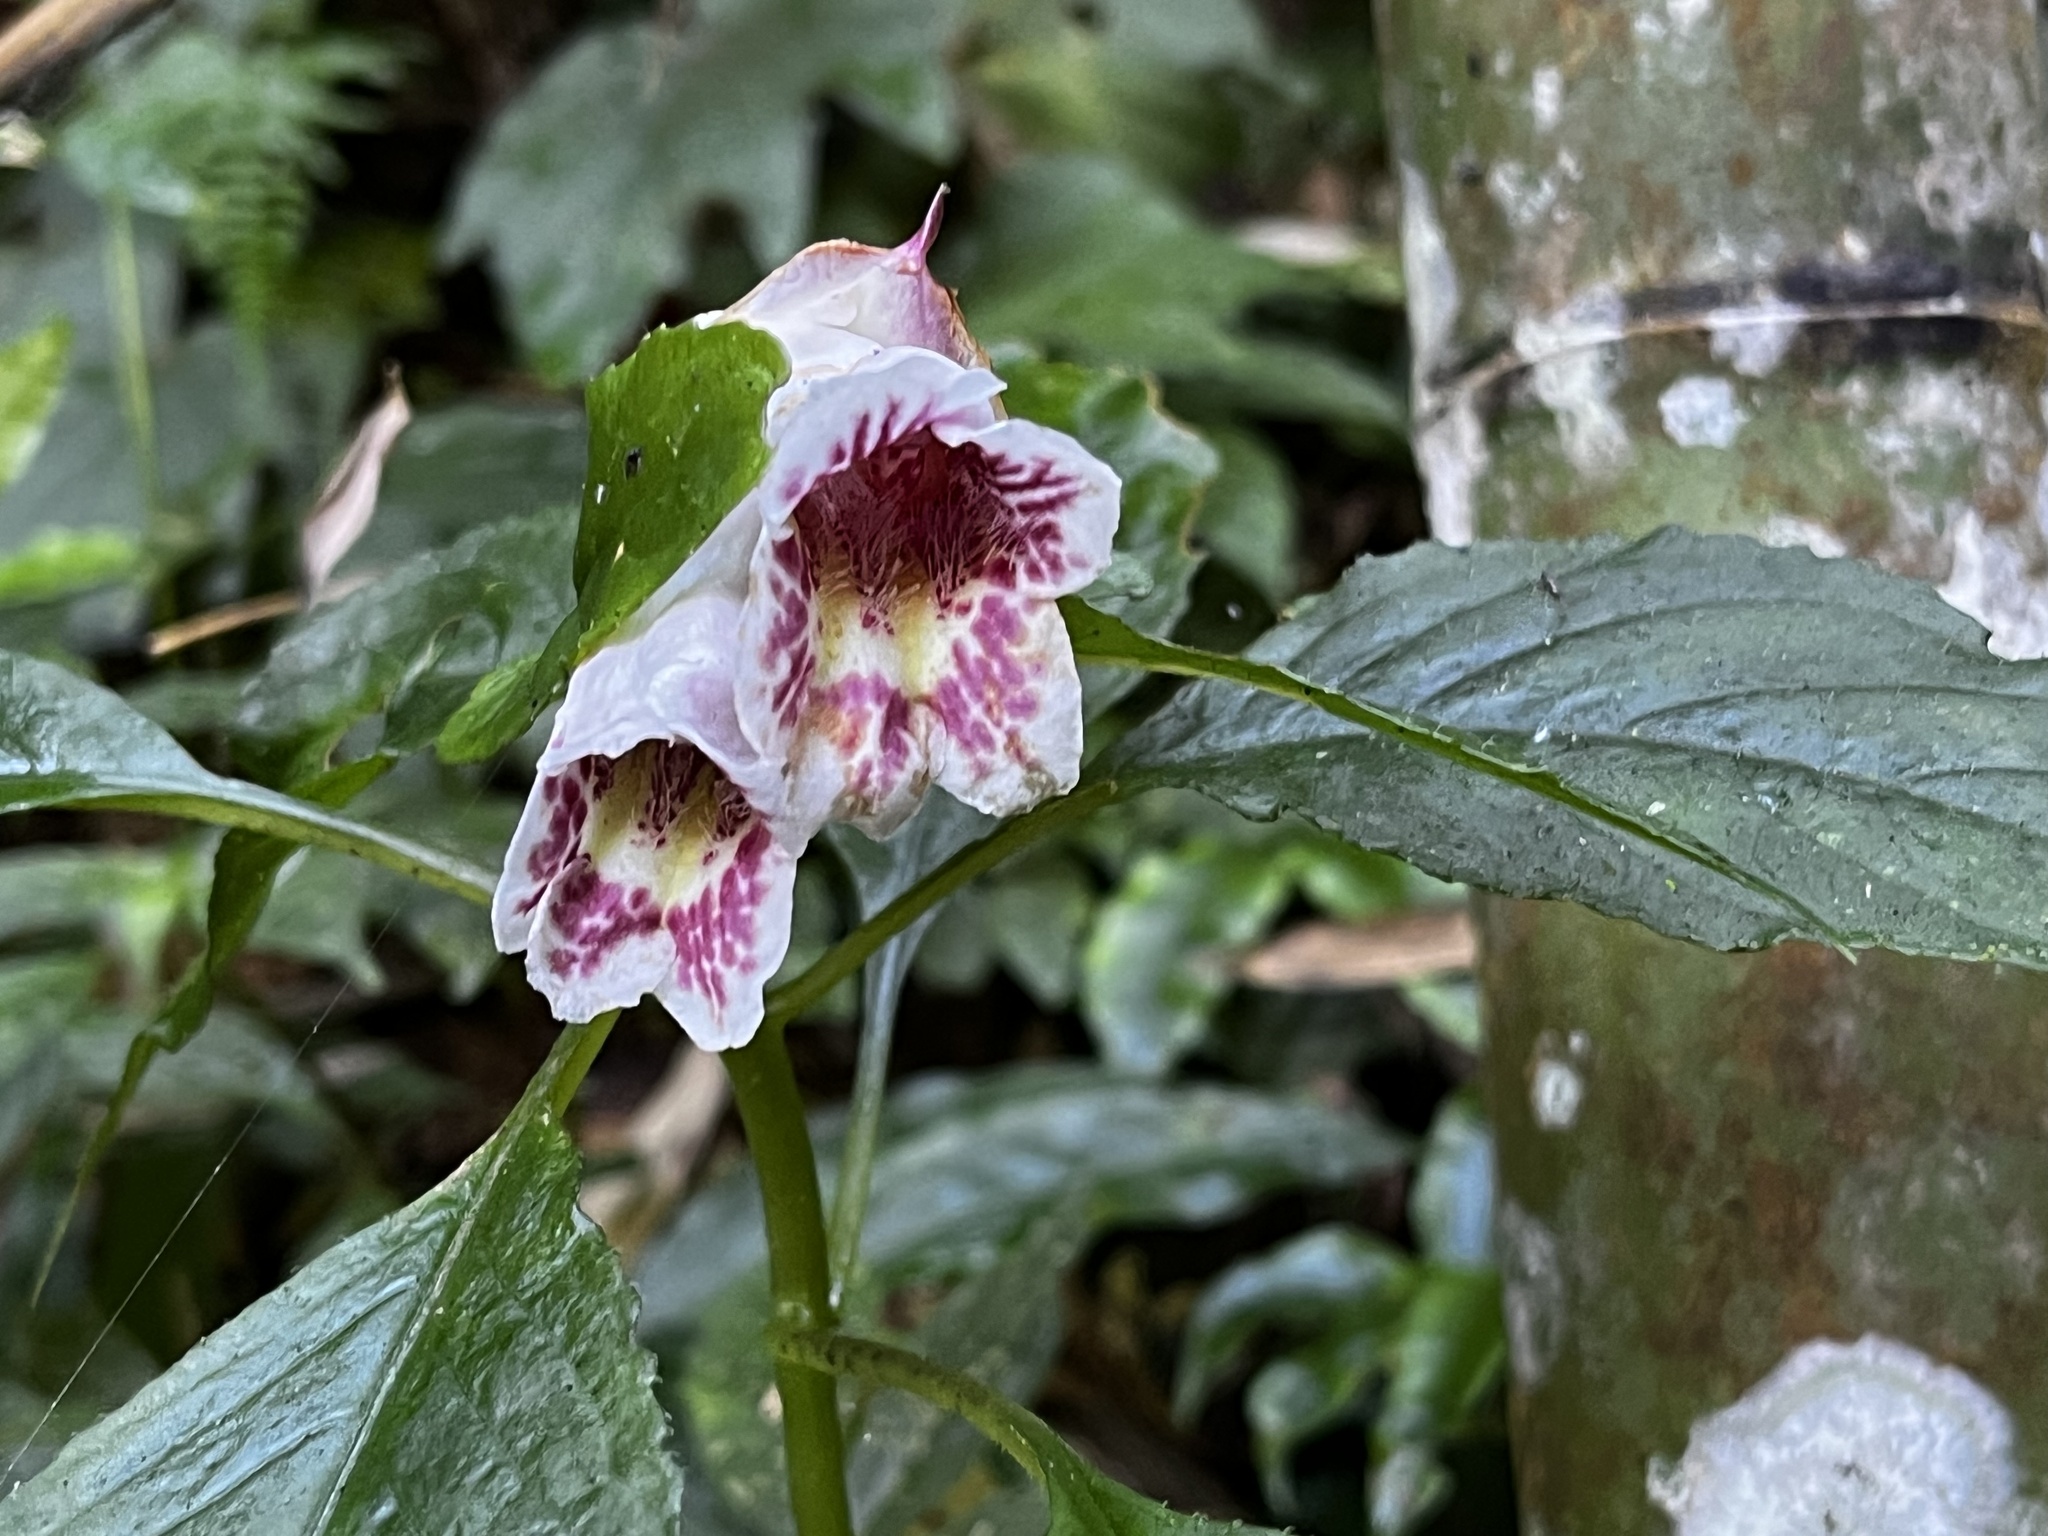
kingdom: Plantae
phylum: Tracheophyta
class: Magnoliopsida
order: Lamiales
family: Gesneriaceae
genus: Hemiboea
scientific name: Hemiboea bicornuta
